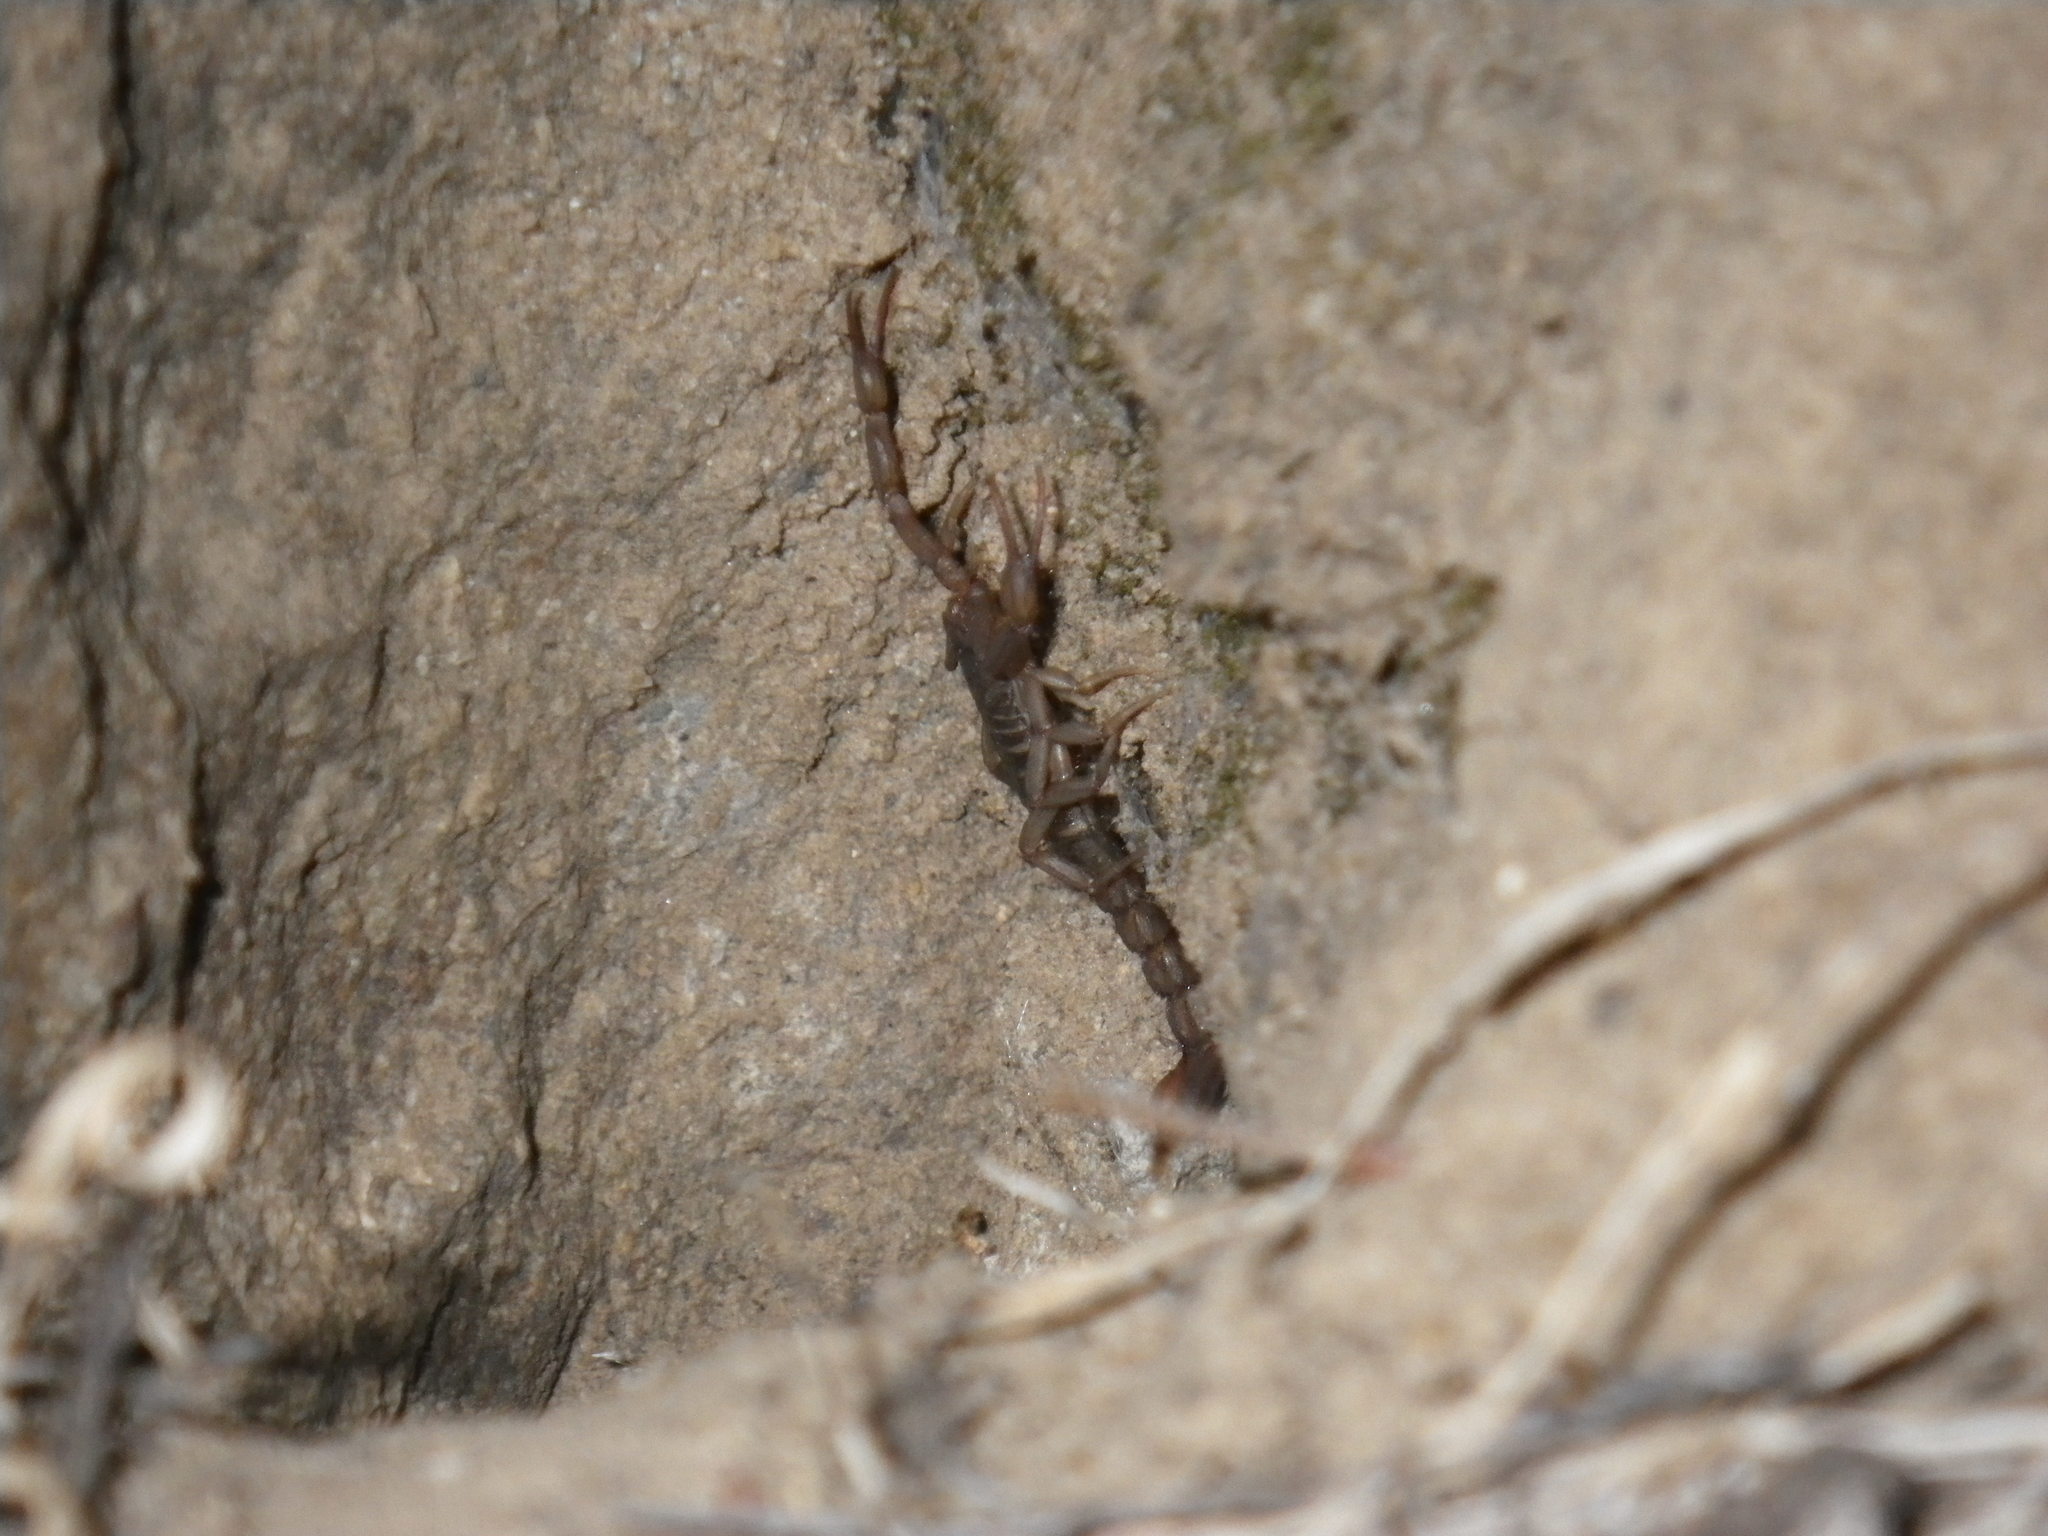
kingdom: Animalia
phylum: Arthropoda
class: Arachnida
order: Scorpiones
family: Vaejovidae
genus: Serradigitus
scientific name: Serradigitus gertschi
